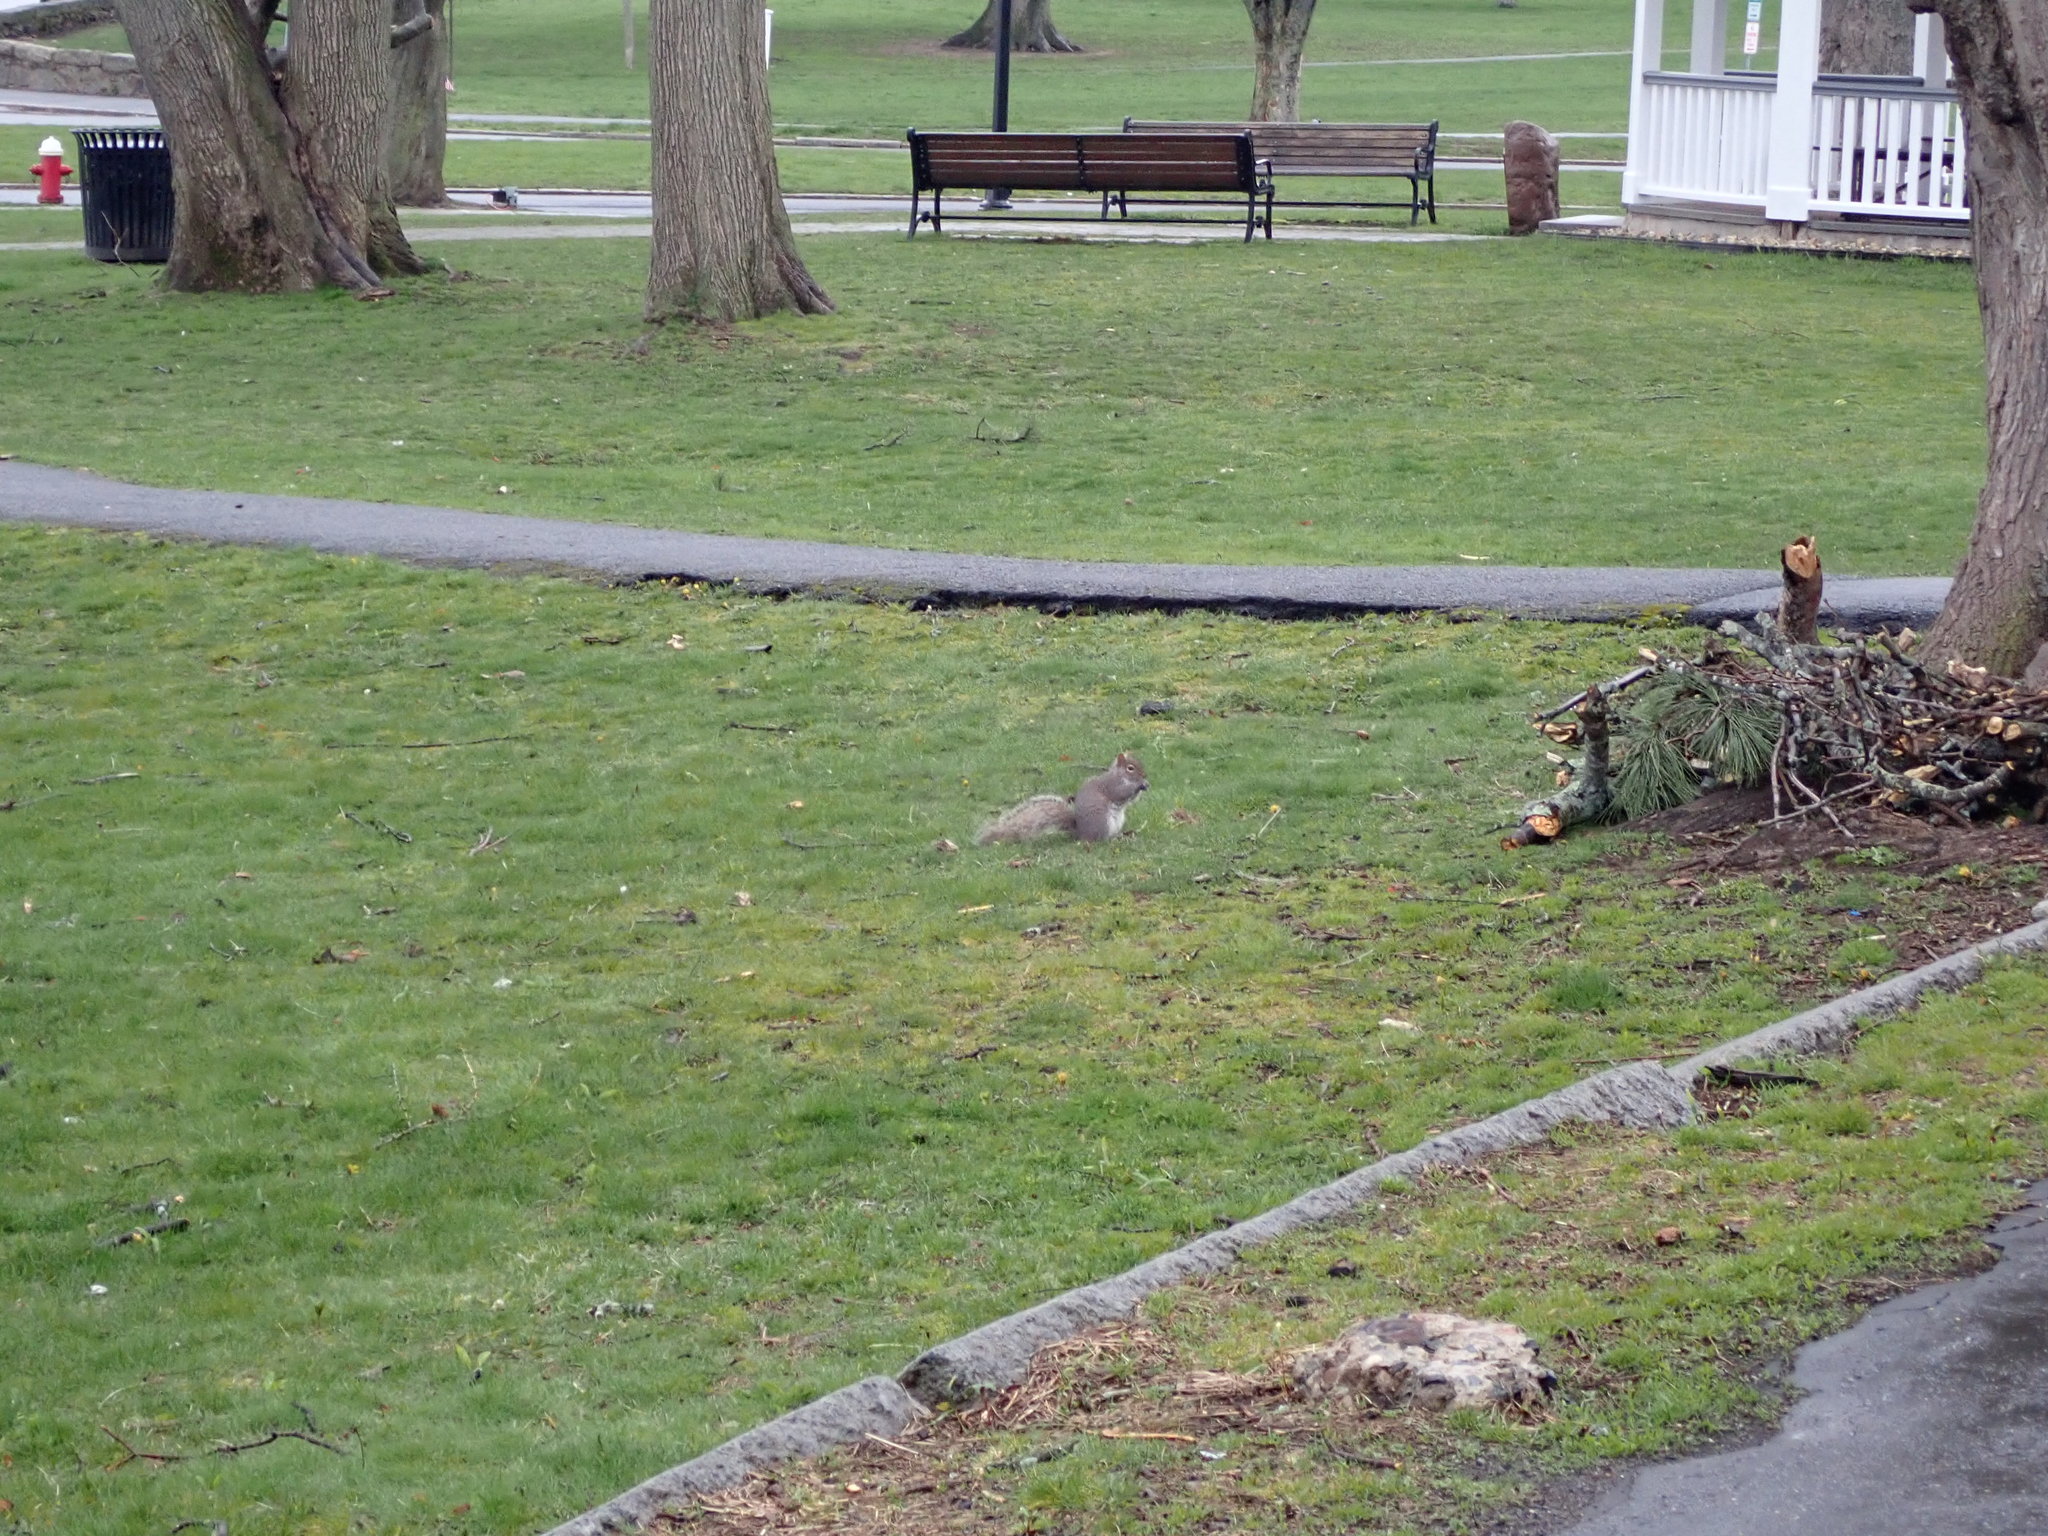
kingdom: Animalia
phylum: Chordata
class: Mammalia
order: Rodentia
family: Sciuridae
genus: Sciurus
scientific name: Sciurus carolinensis
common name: Eastern gray squirrel
